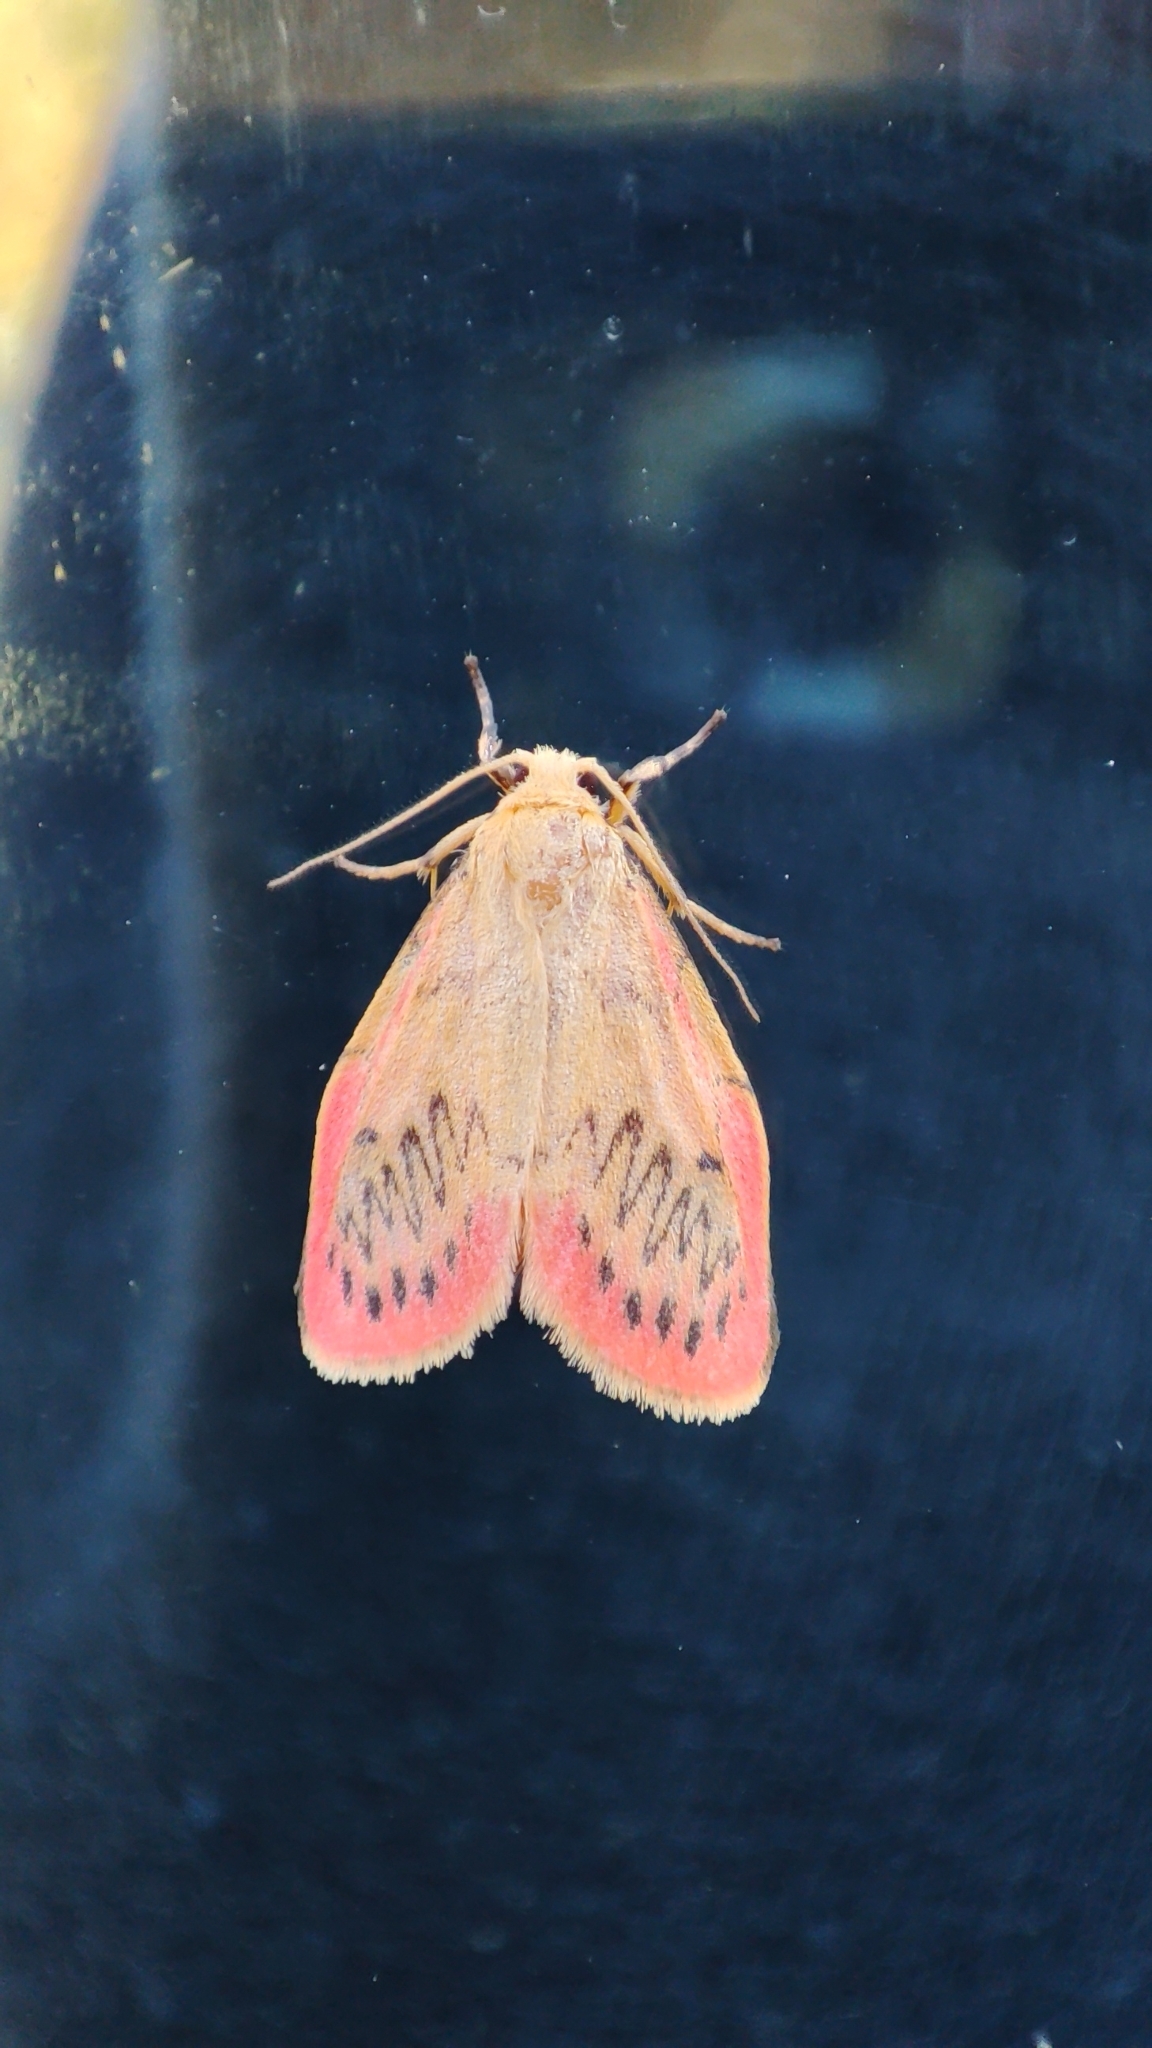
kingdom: Animalia
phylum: Arthropoda
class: Insecta
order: Lepidoptera
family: Erebidae
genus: Miltochrista
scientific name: Miltochrista miniata
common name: Rosy footman
